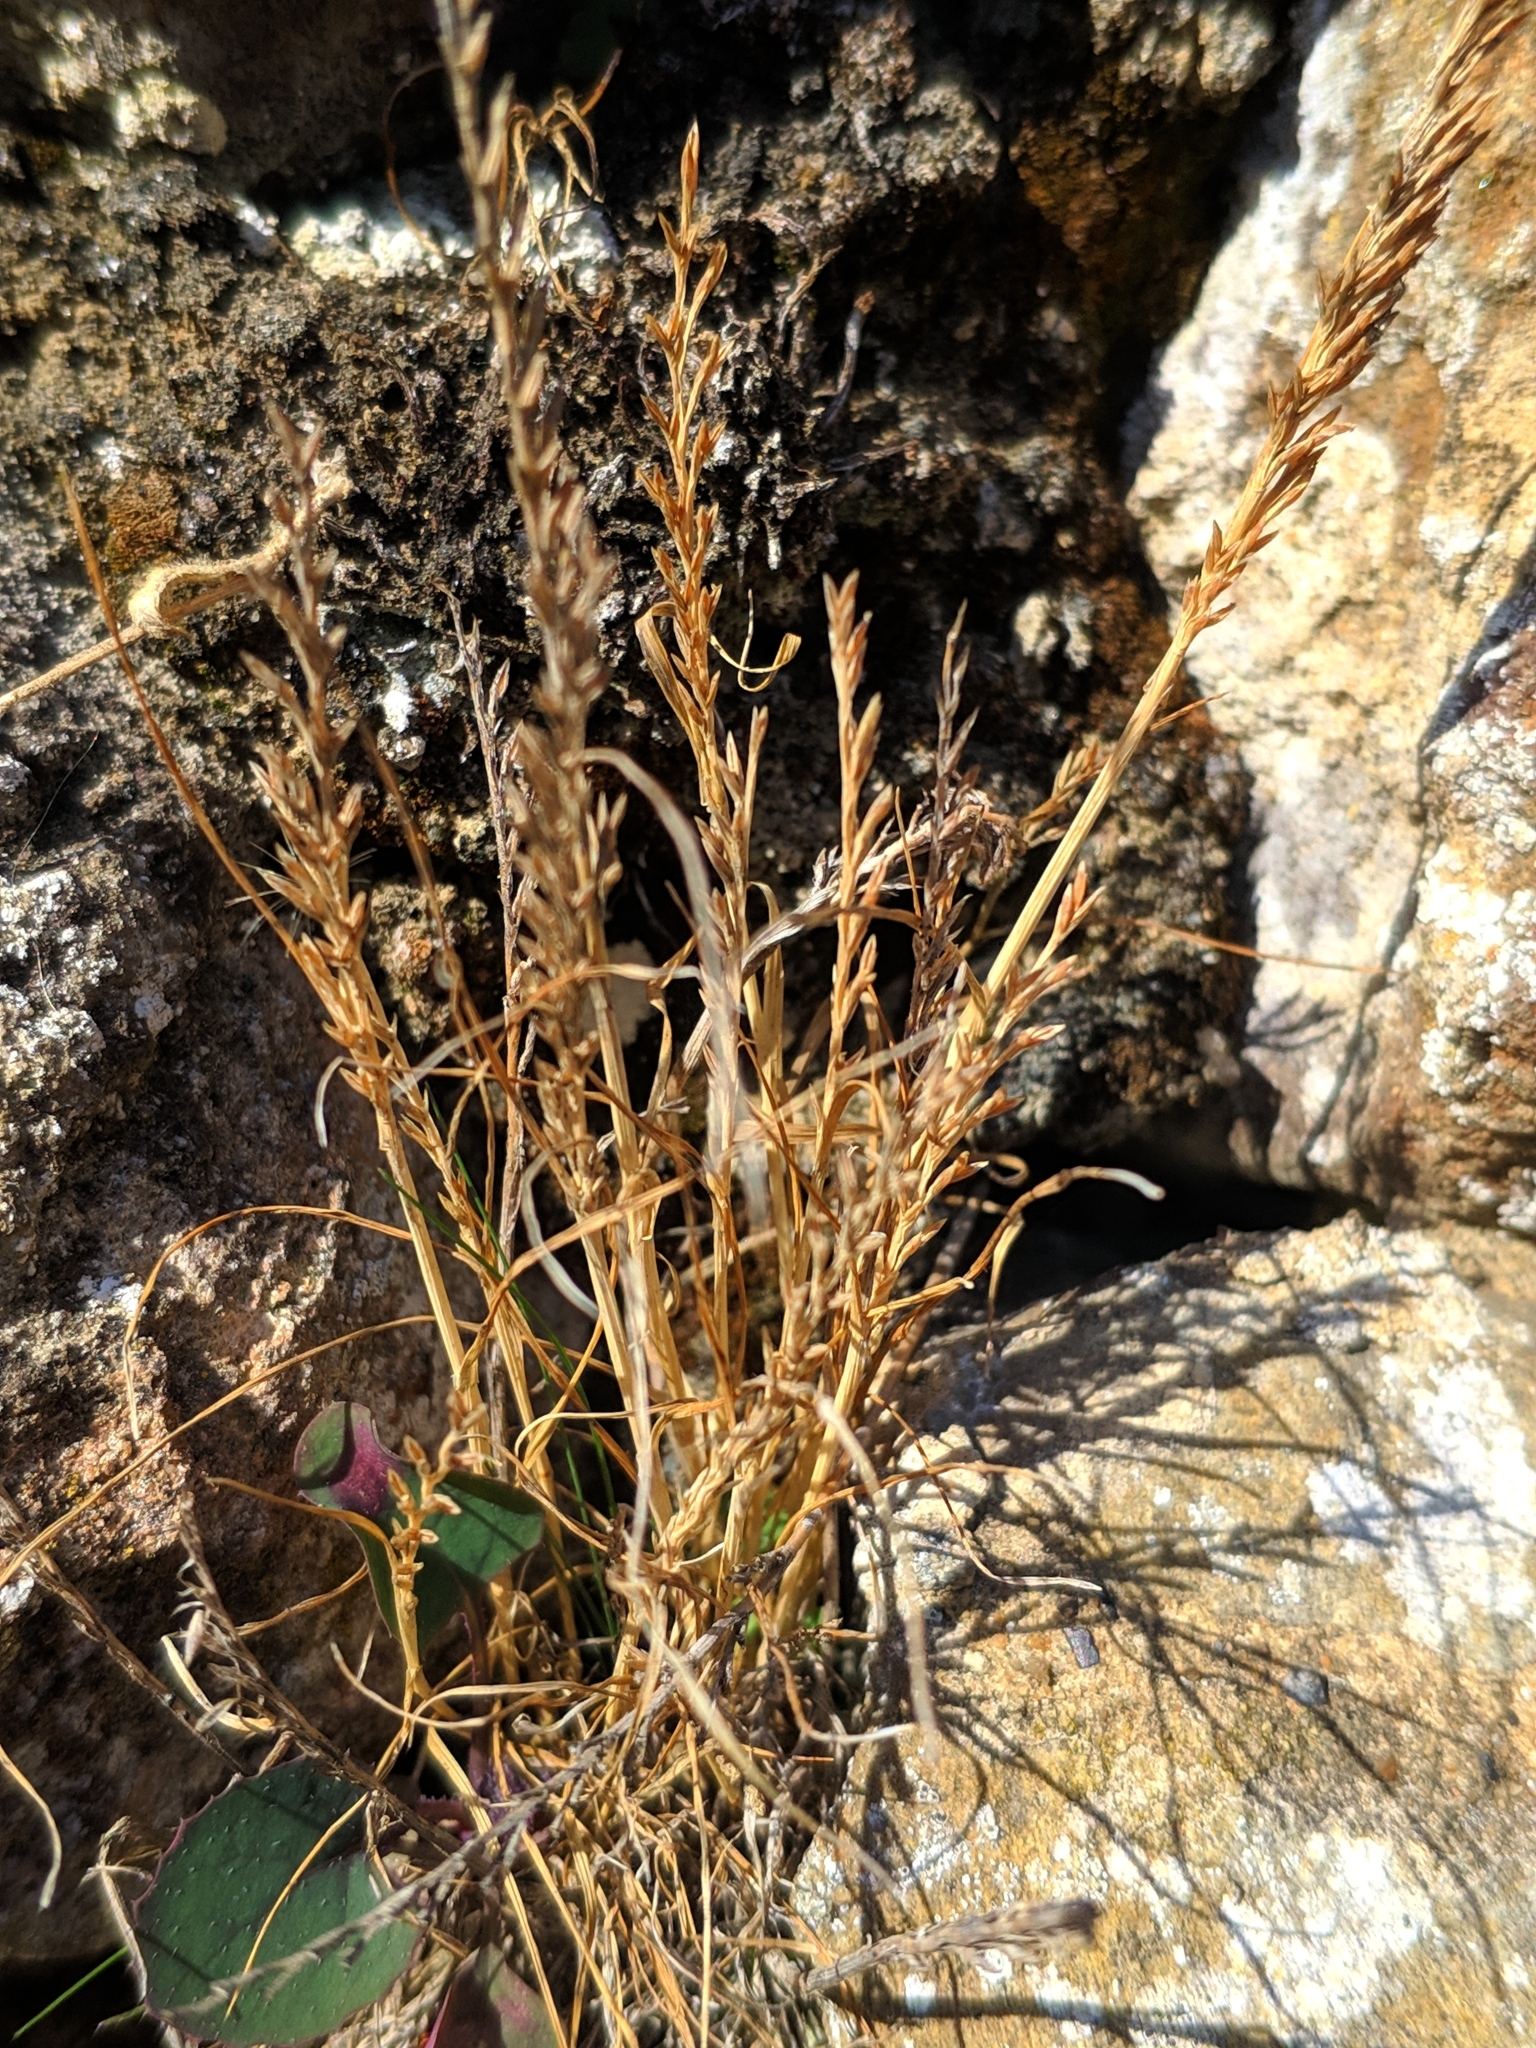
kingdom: Plantae
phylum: Tracheophyta
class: Liliopsida
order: Poales
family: Poaceae
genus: Catapodium
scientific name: Catapodium rigidum
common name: Fern-grass
